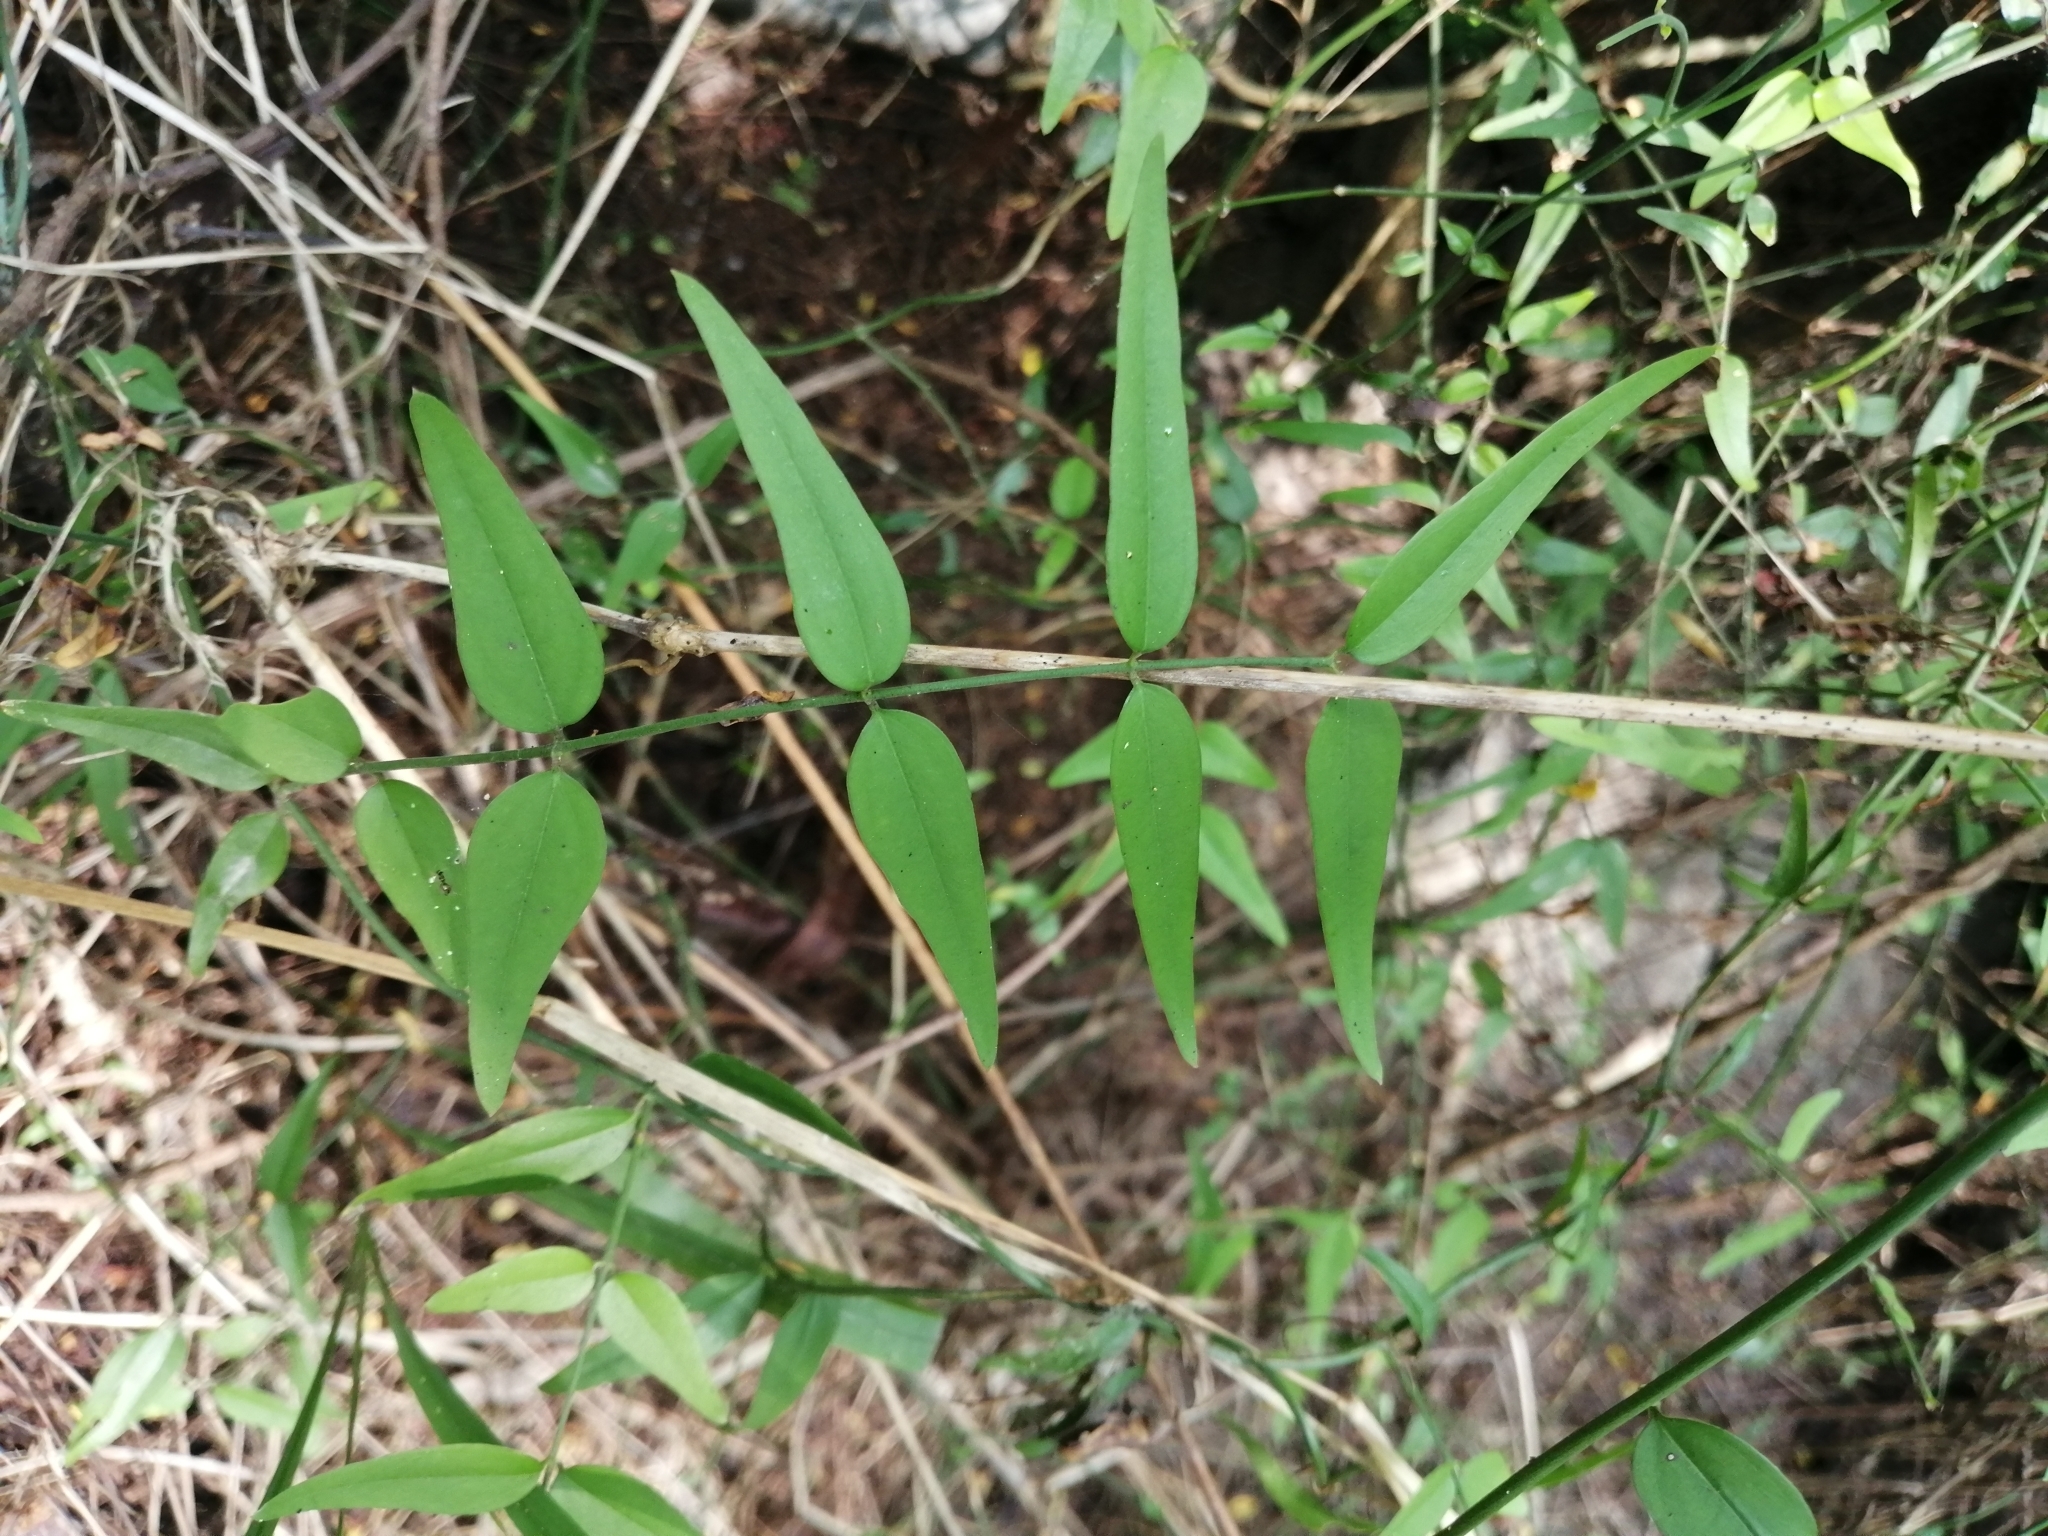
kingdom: Plantae
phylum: Tracheophyta
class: Magnoliopsida
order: Lamiales
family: Oleaceae
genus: Jasminum
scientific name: Jasminum nervosum
